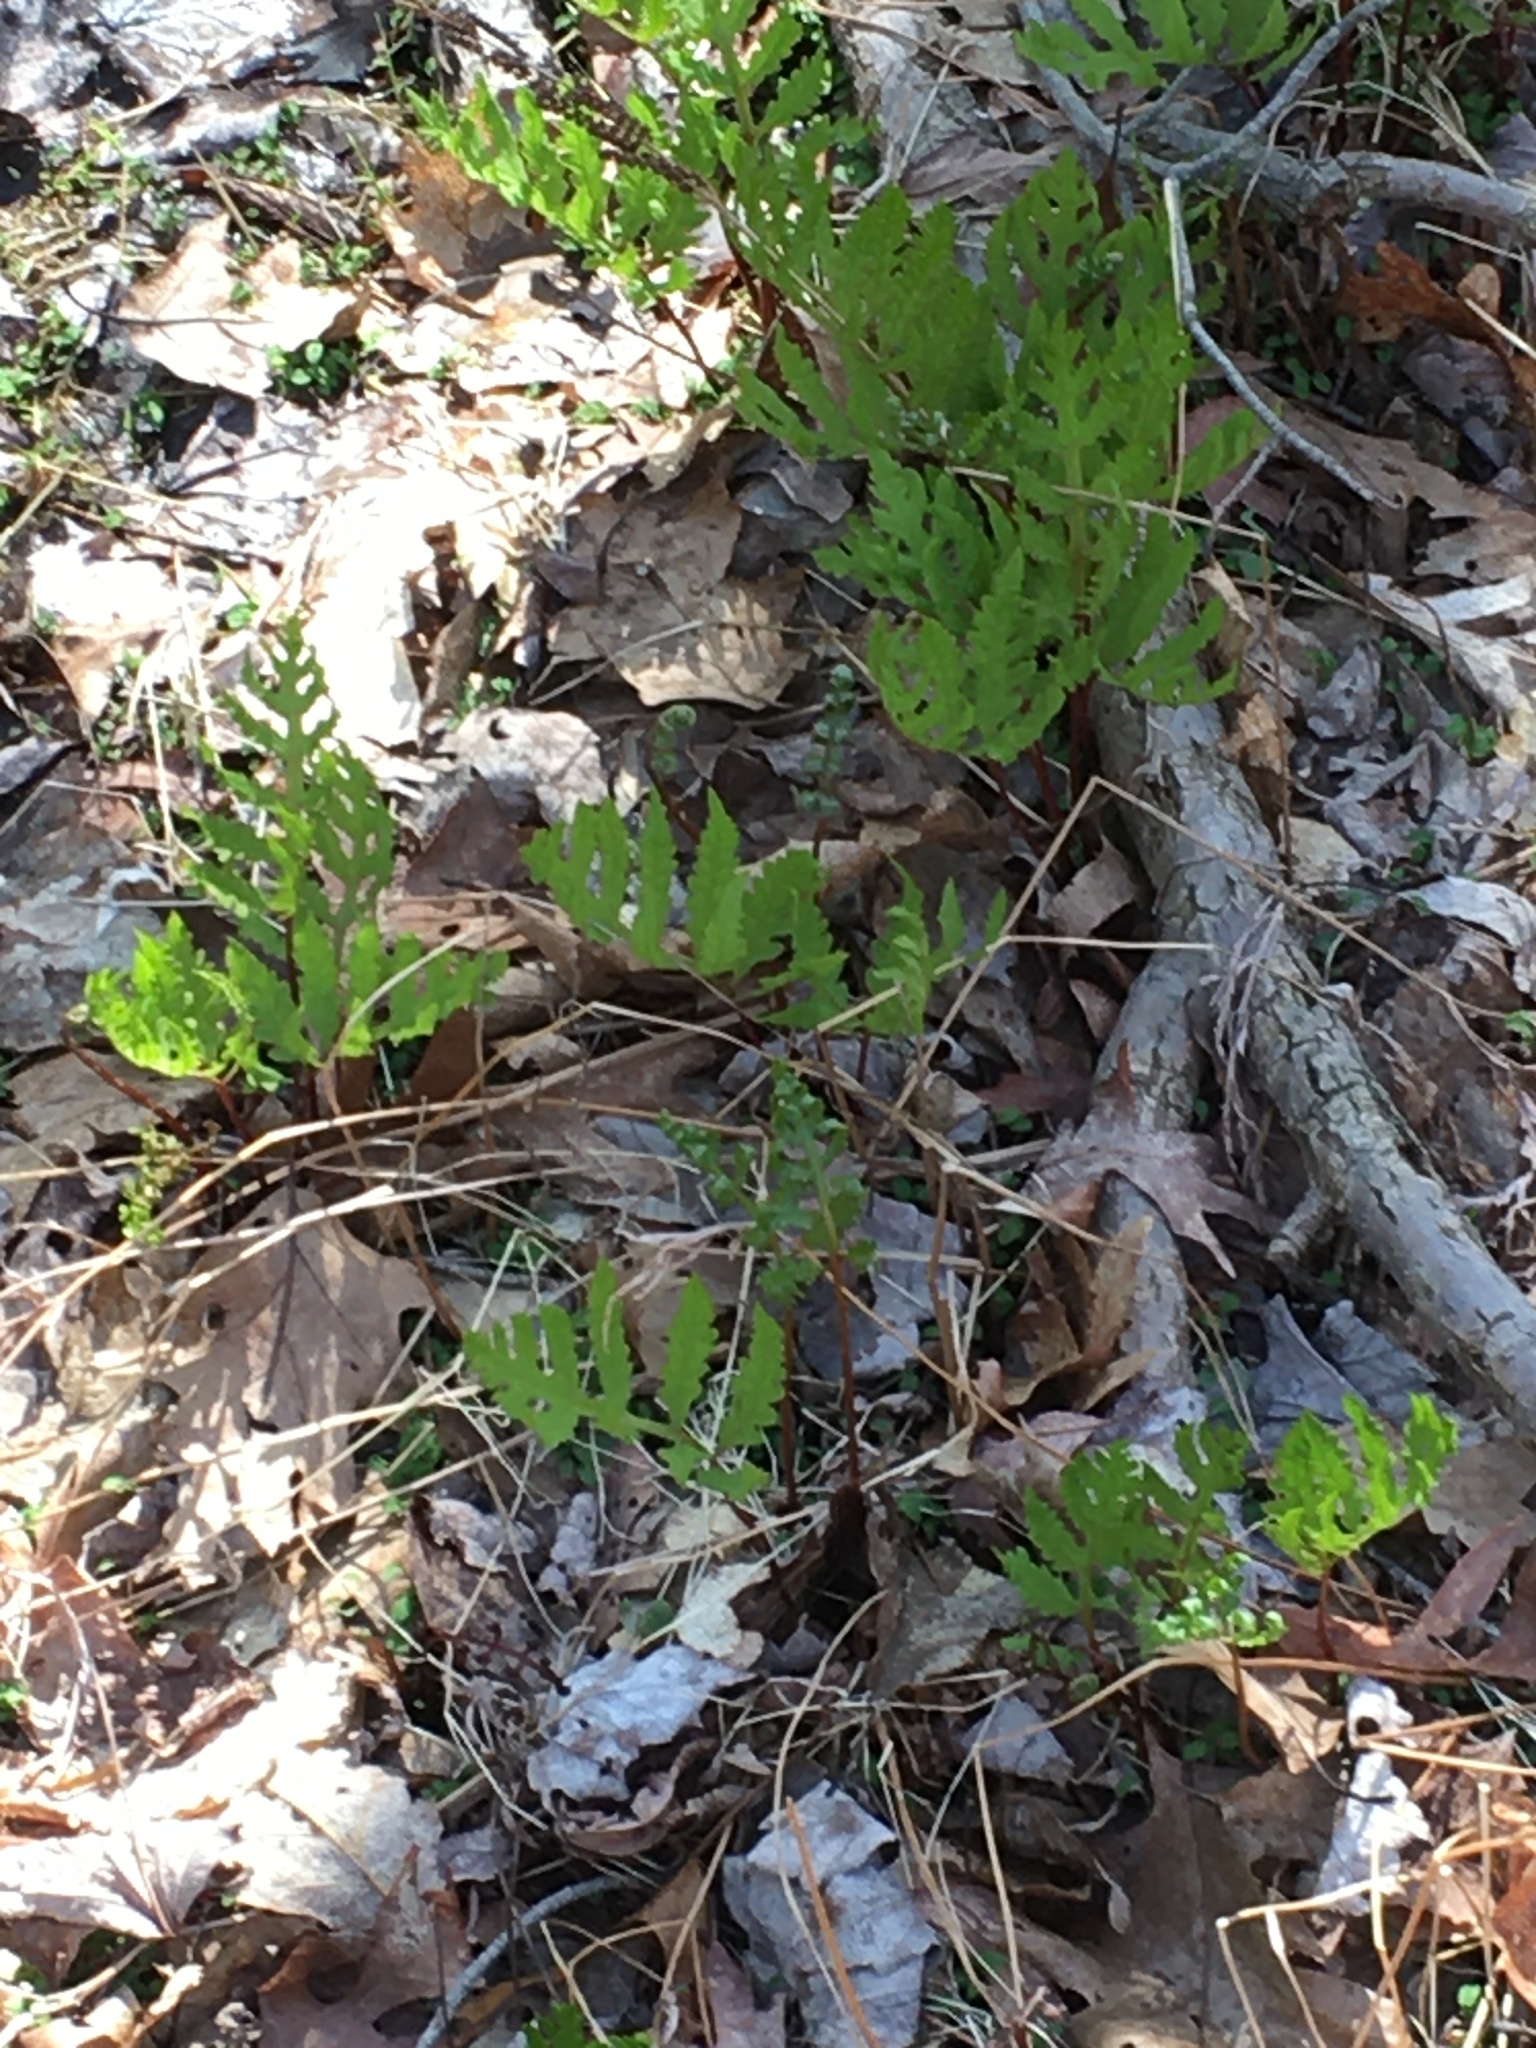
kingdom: Plantae
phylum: Tracheophyta
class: Polypodiopsida
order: Polypodiales
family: Onocleaceae
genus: Onoclea
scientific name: Onoclea sensibilis
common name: Sensitive fern
